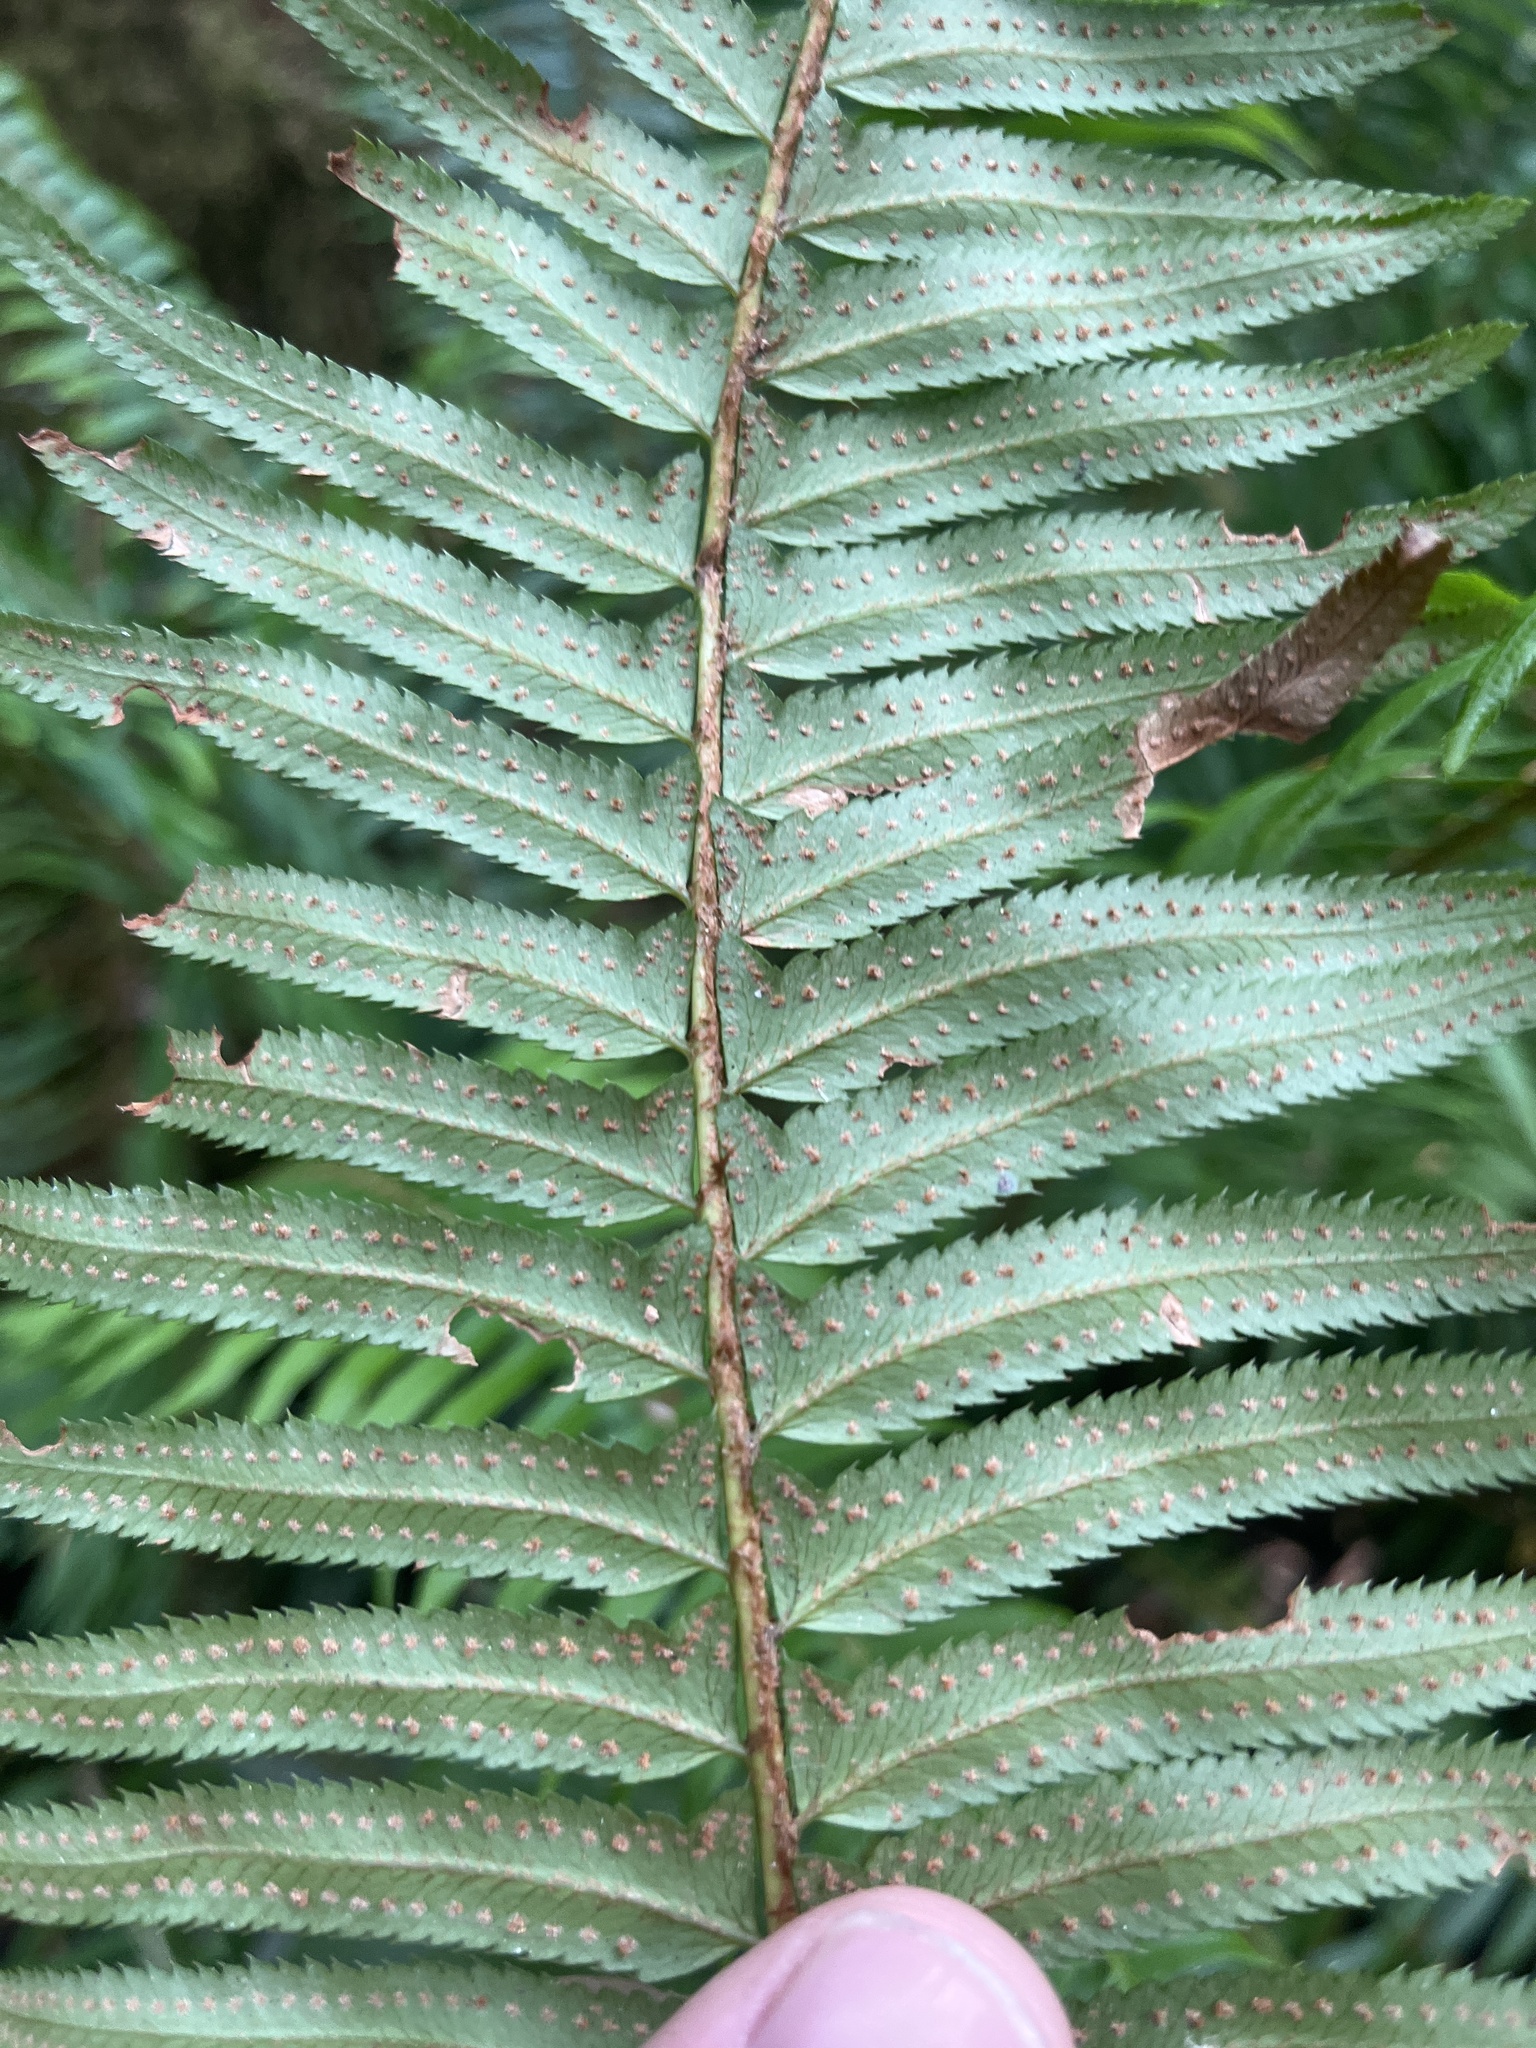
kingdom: Plantae
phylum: Tracheophyta
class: Polypodiopsida
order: Polypodiales
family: Dryopteridaceae
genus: Polystichum
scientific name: Polystichum munitum
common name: Western sword-fern
